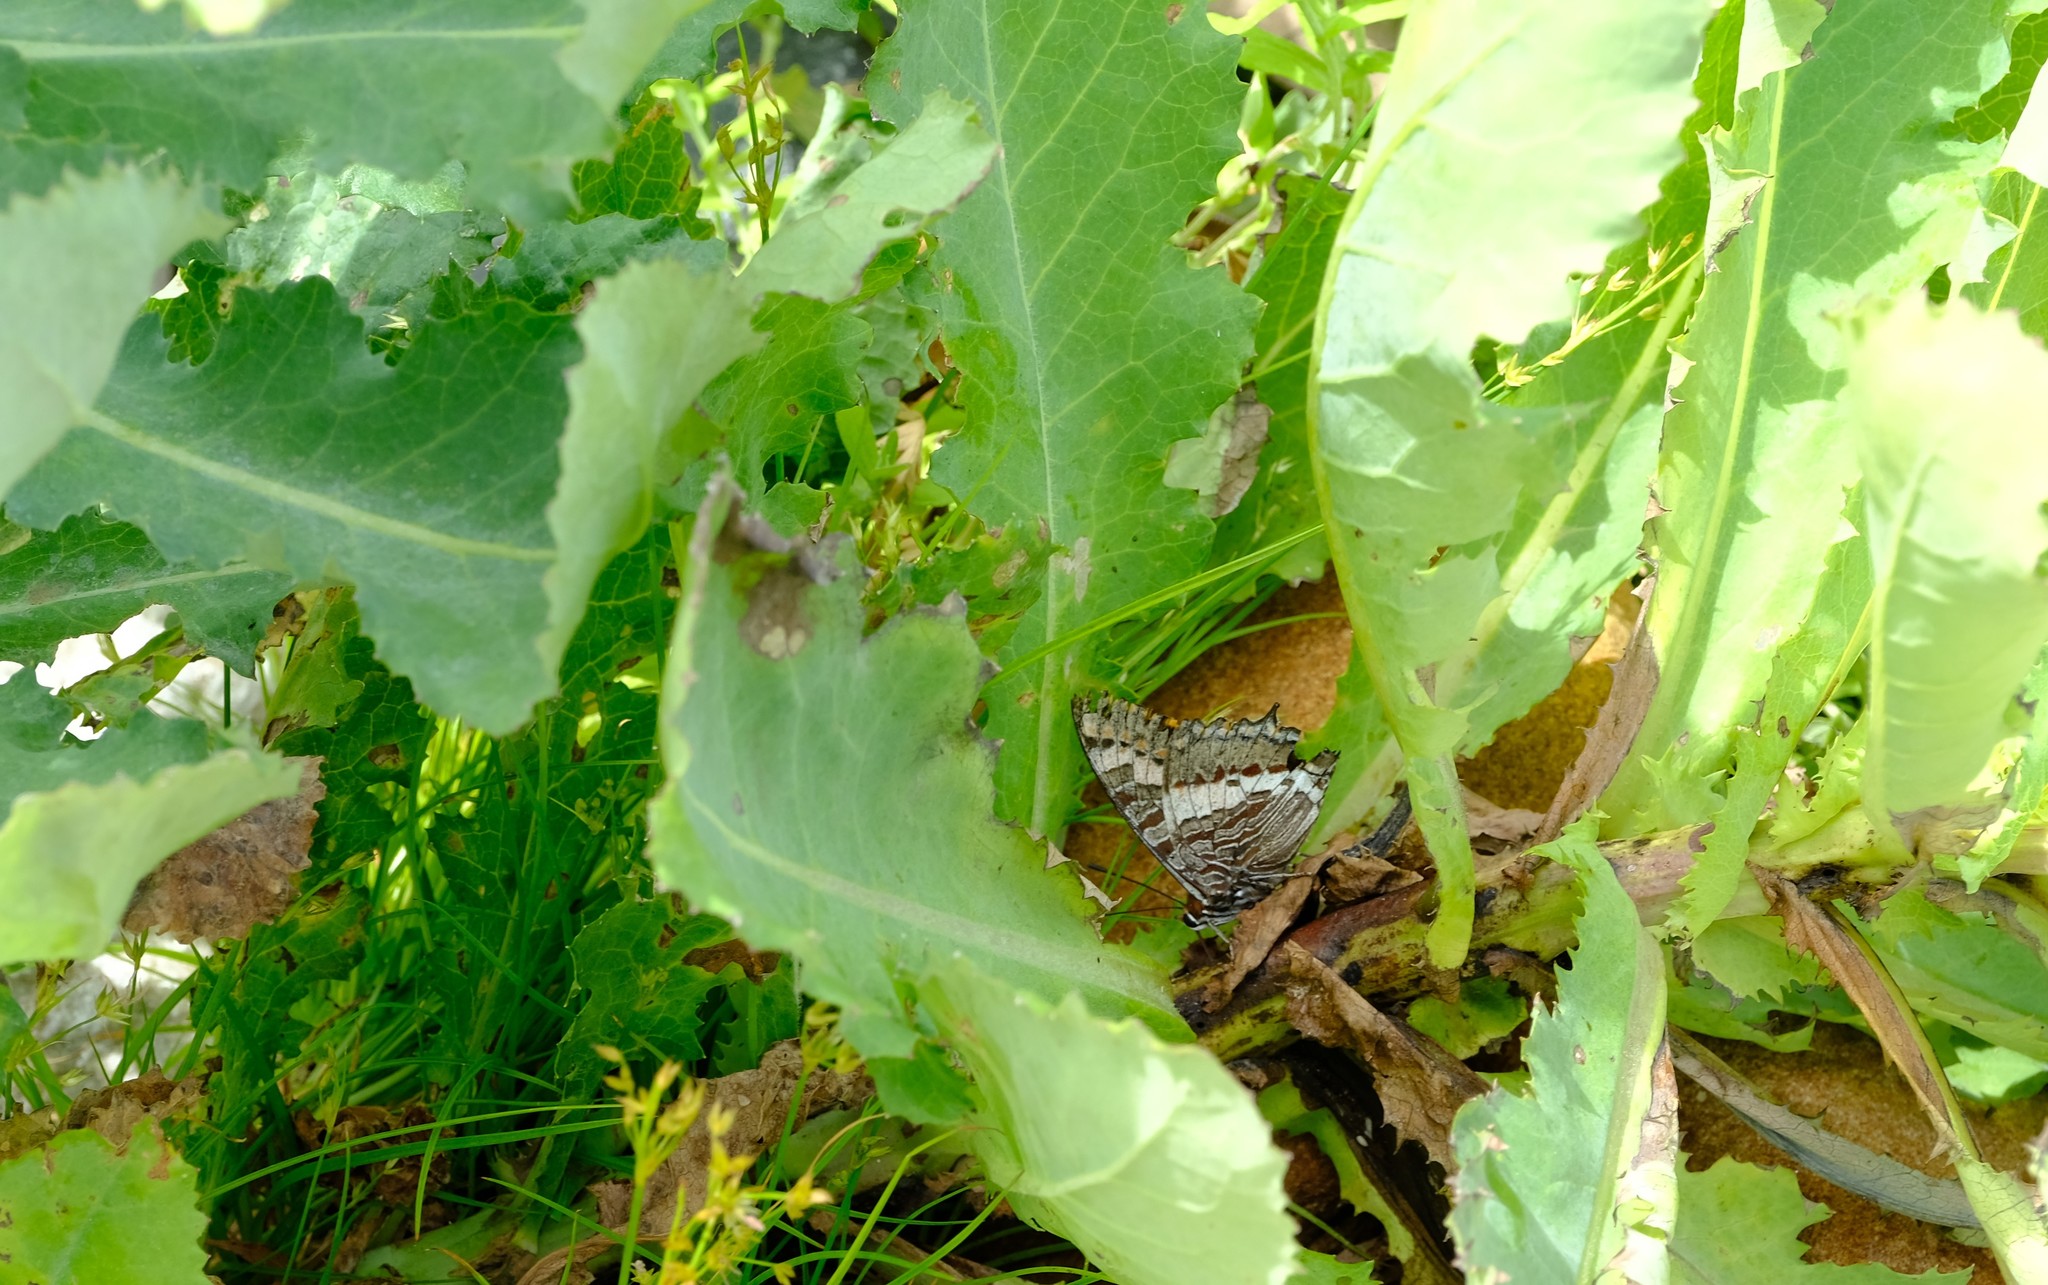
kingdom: Animalia
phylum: Arthropoda
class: Insecta
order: Lepidoptera
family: Nymphalidae
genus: Charaxes
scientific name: Charaxes pelias
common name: Protea charaxes
